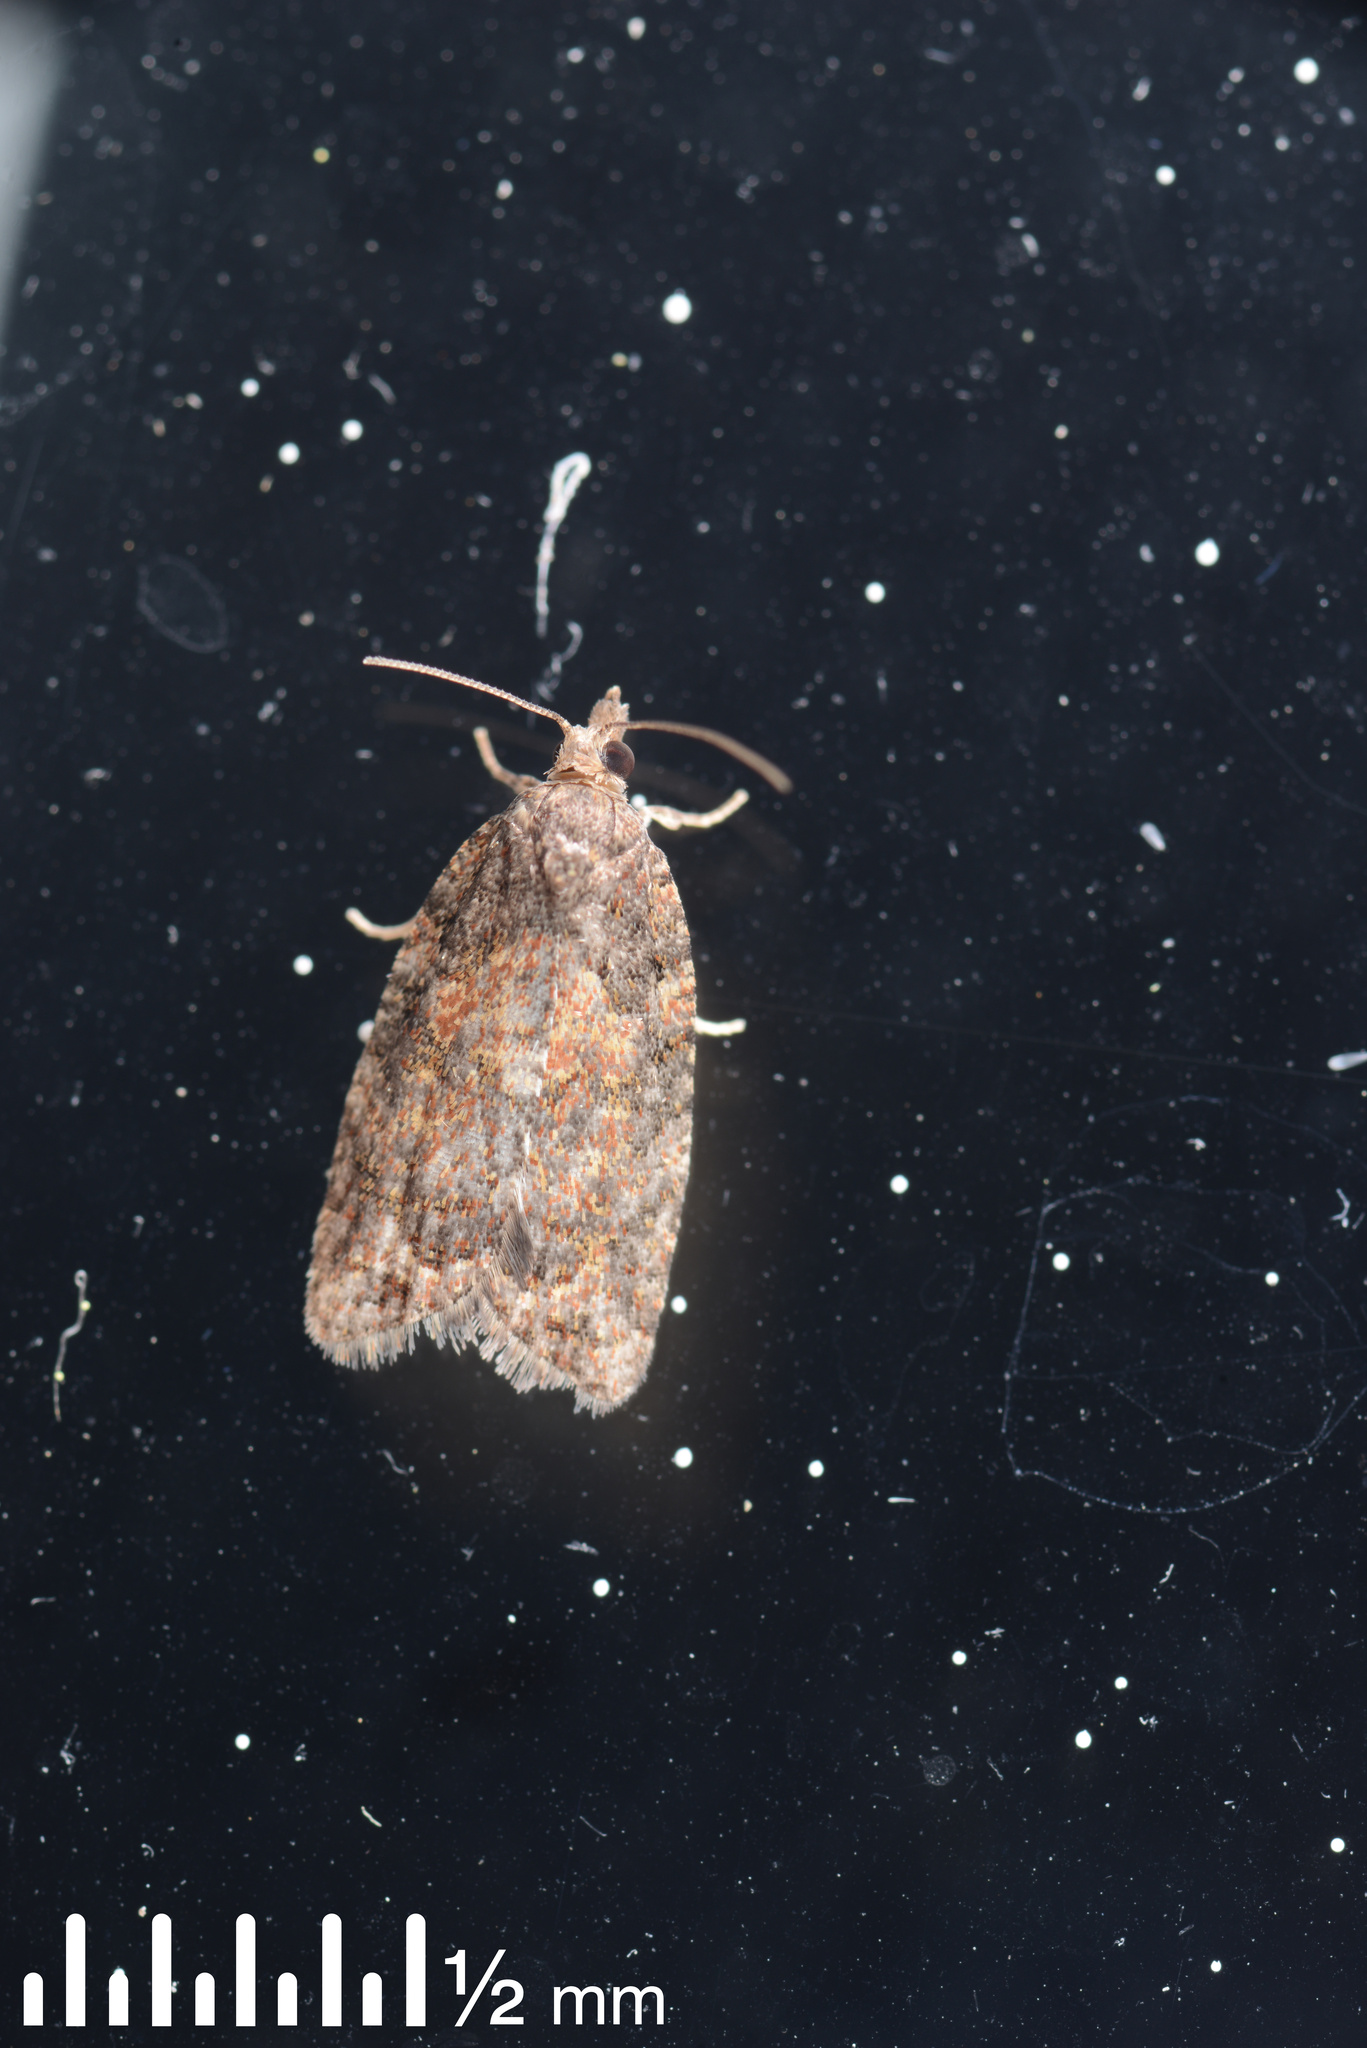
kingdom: Animalia
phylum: Arthropoda
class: Insecta
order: Lepidoptera
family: Tortricidae
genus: Capua
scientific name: Capua intractana
